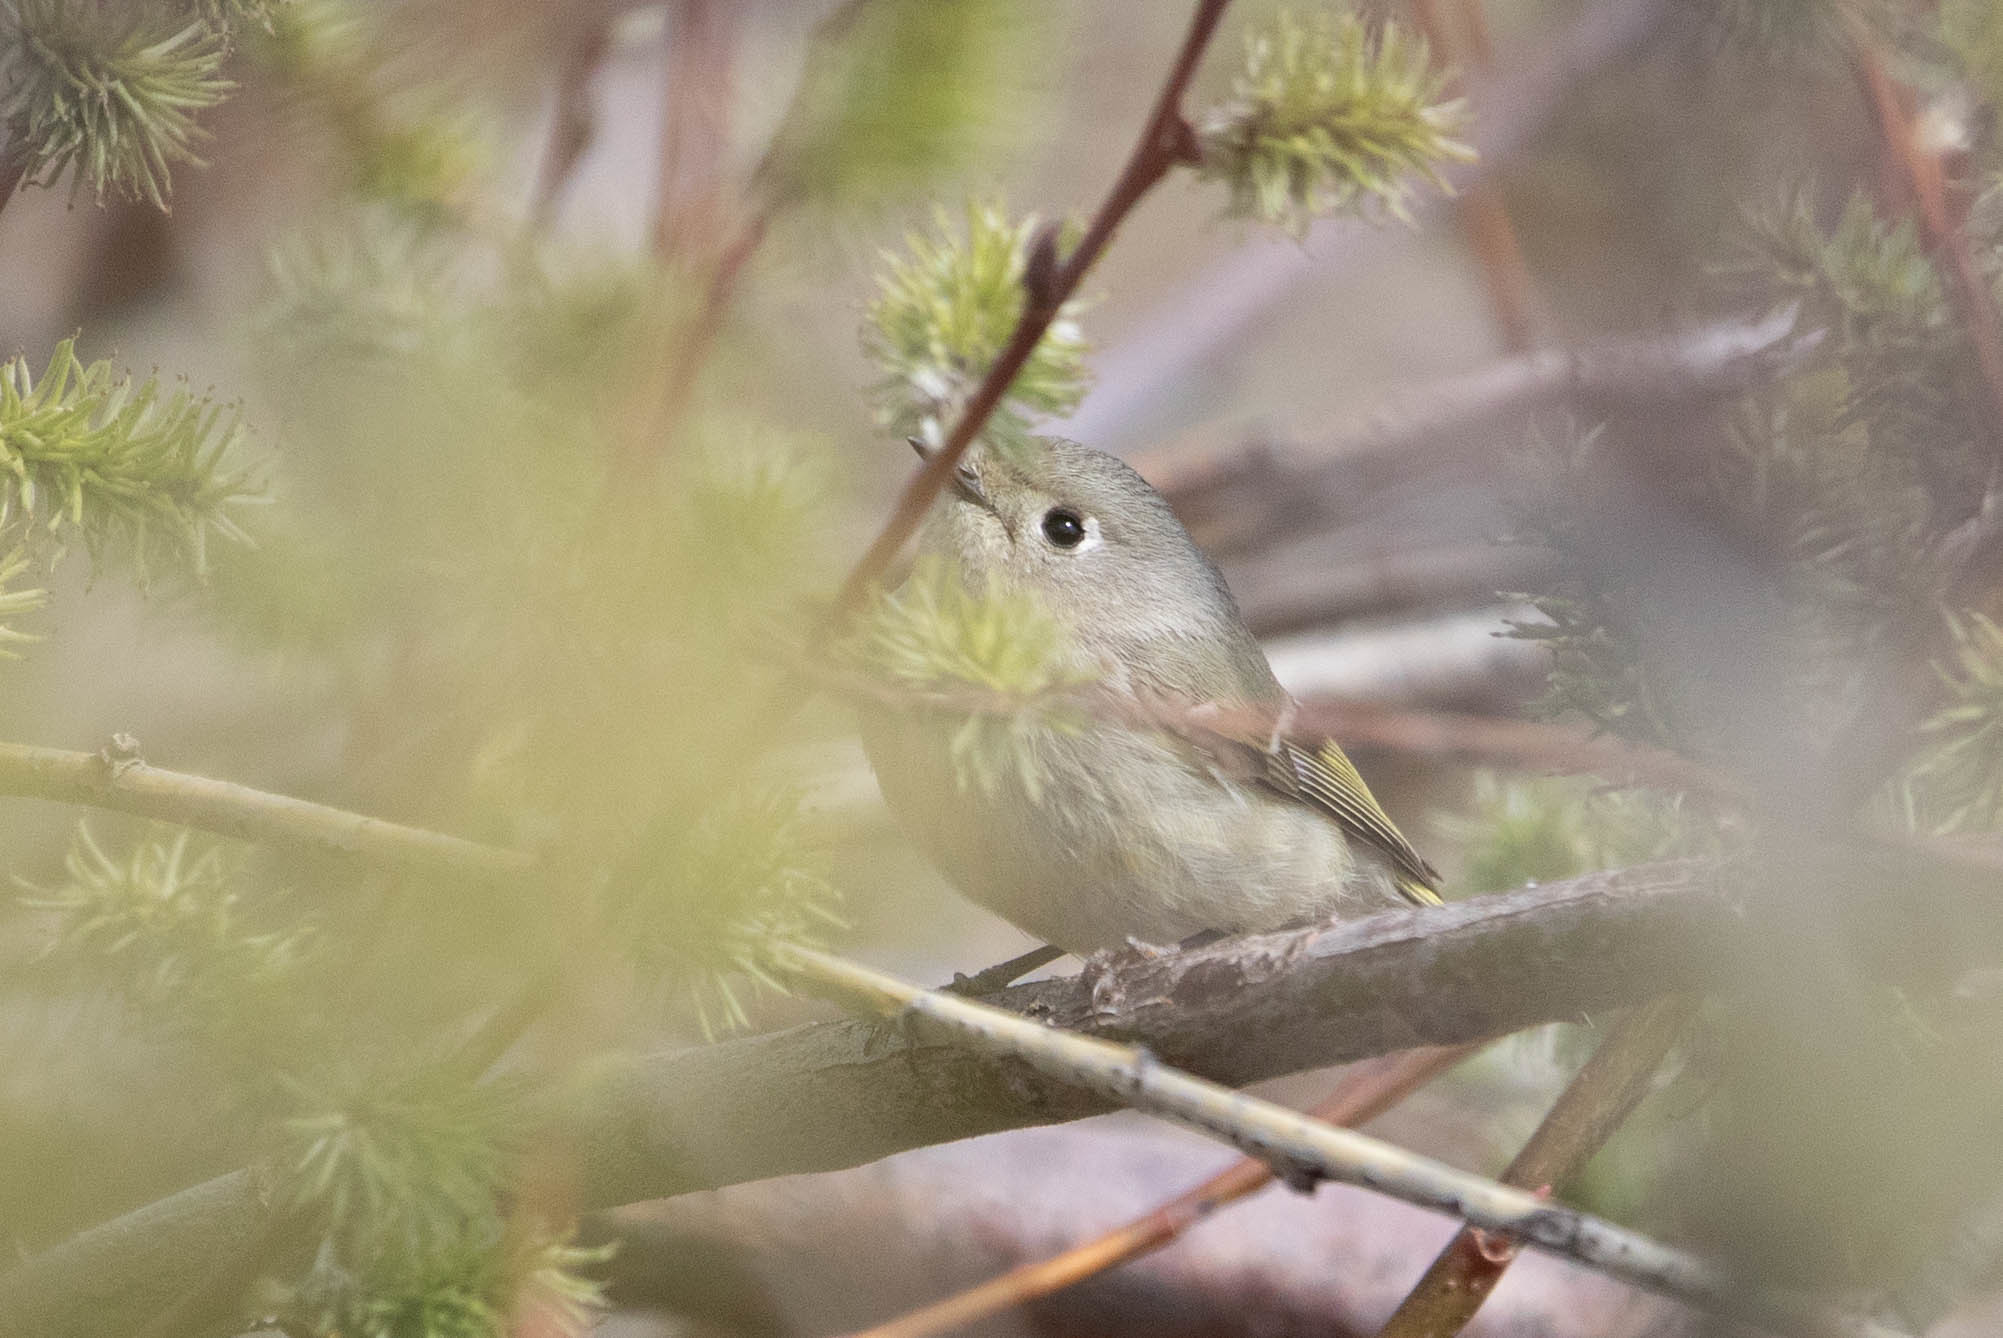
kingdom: Animalia
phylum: Chordata
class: Aves
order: Passeriformes
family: Regulidae
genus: Regulus
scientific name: Regulus calendula
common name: Ruby-crowned kinglet
